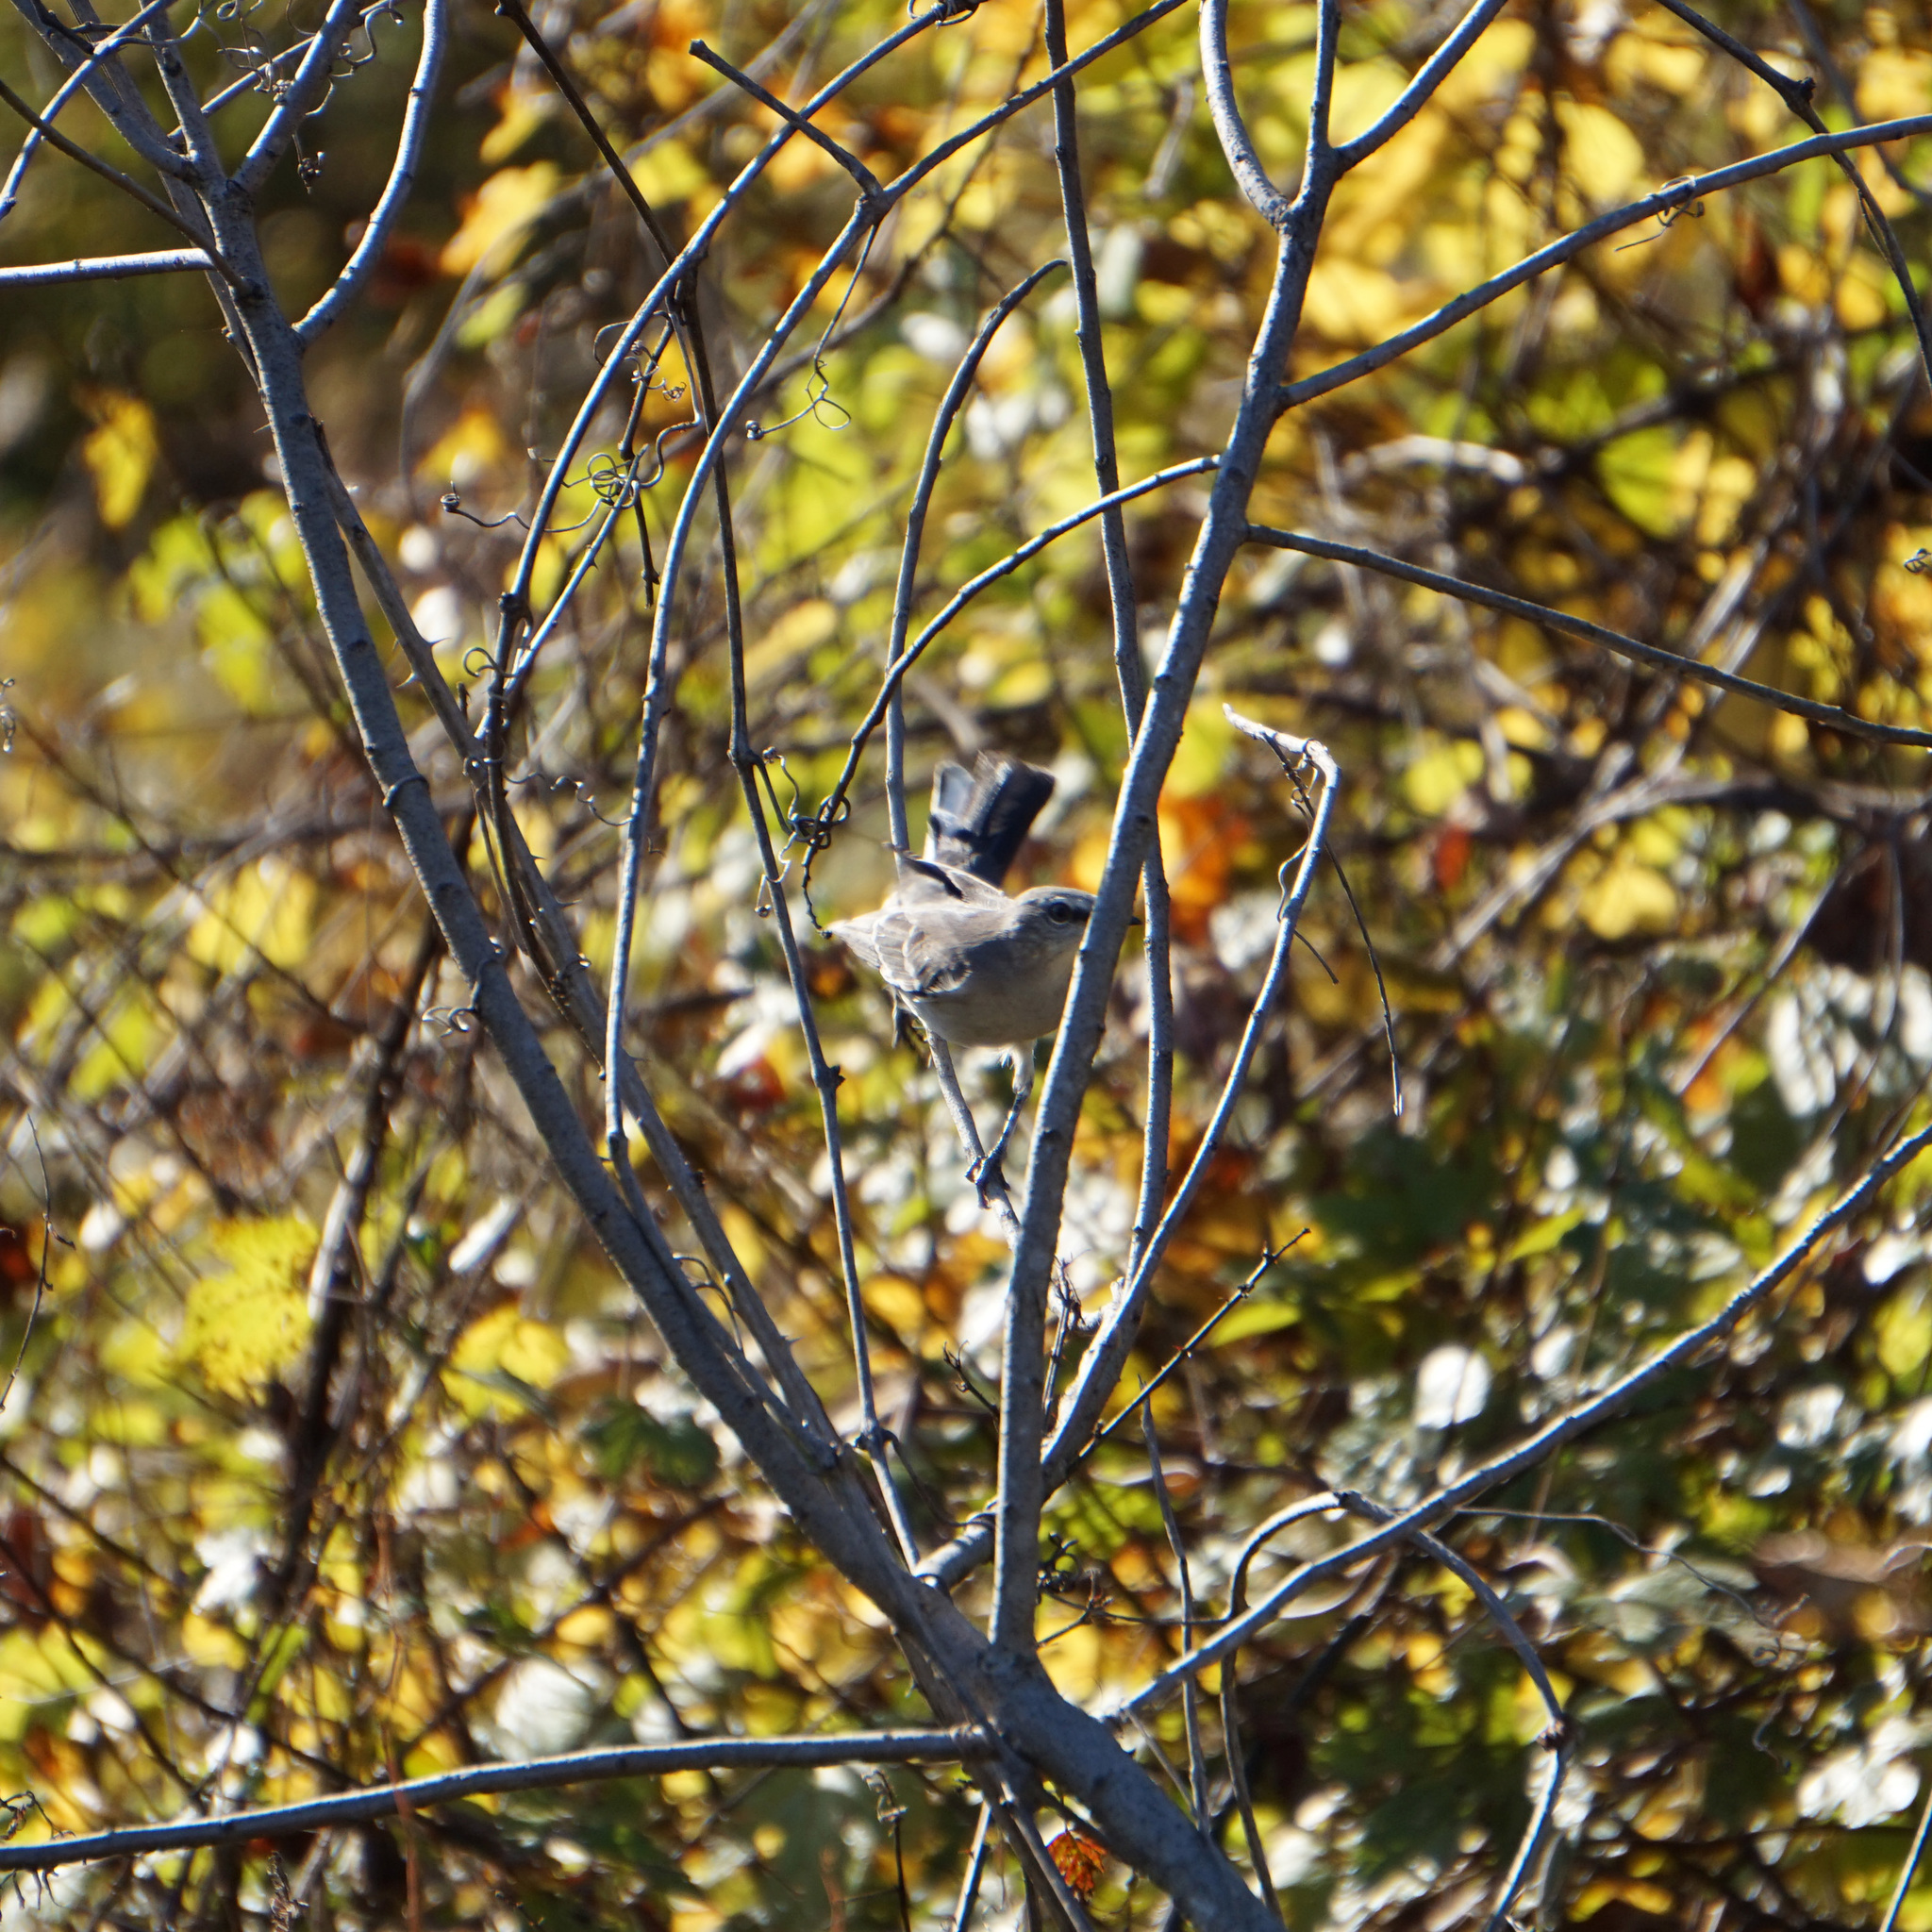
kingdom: Animalia
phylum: Chordata
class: Aves
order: Passeriformes
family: Mimidae
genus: Mimus
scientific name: Mimus polyglottos
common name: Northern mockingbird
